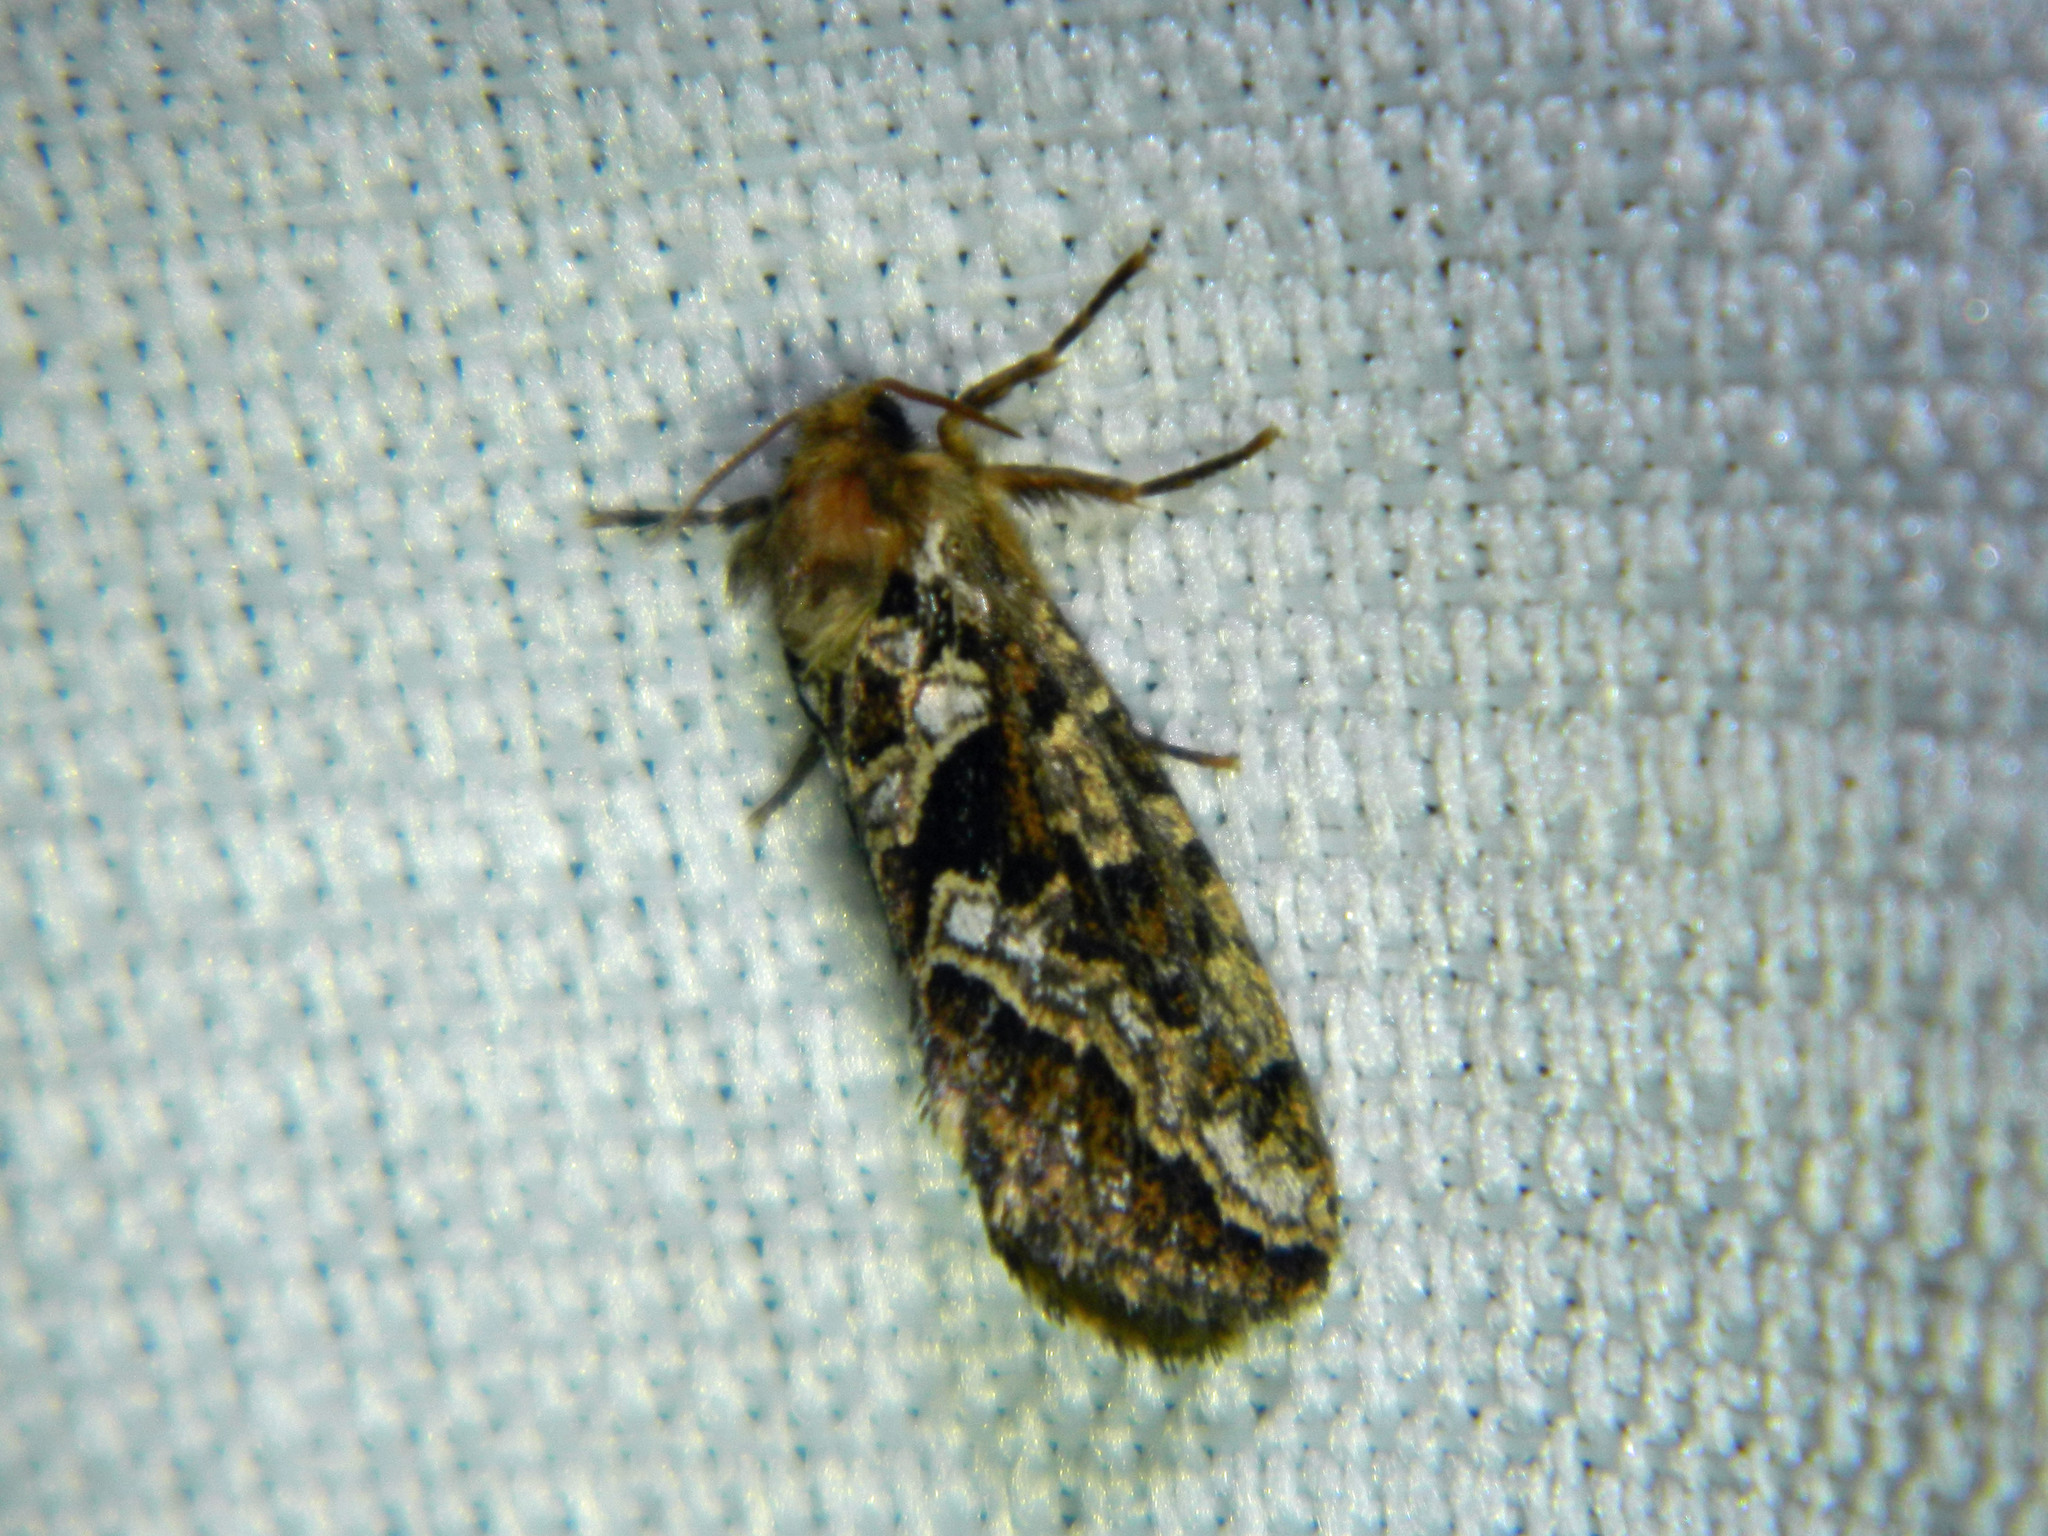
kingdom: Animalia
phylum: Arthropoda
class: Insecta
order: Lepidoptera
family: Hepialidae
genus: Korscheltellus
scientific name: Korscheltellus gracilis
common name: Conifer swift moth
